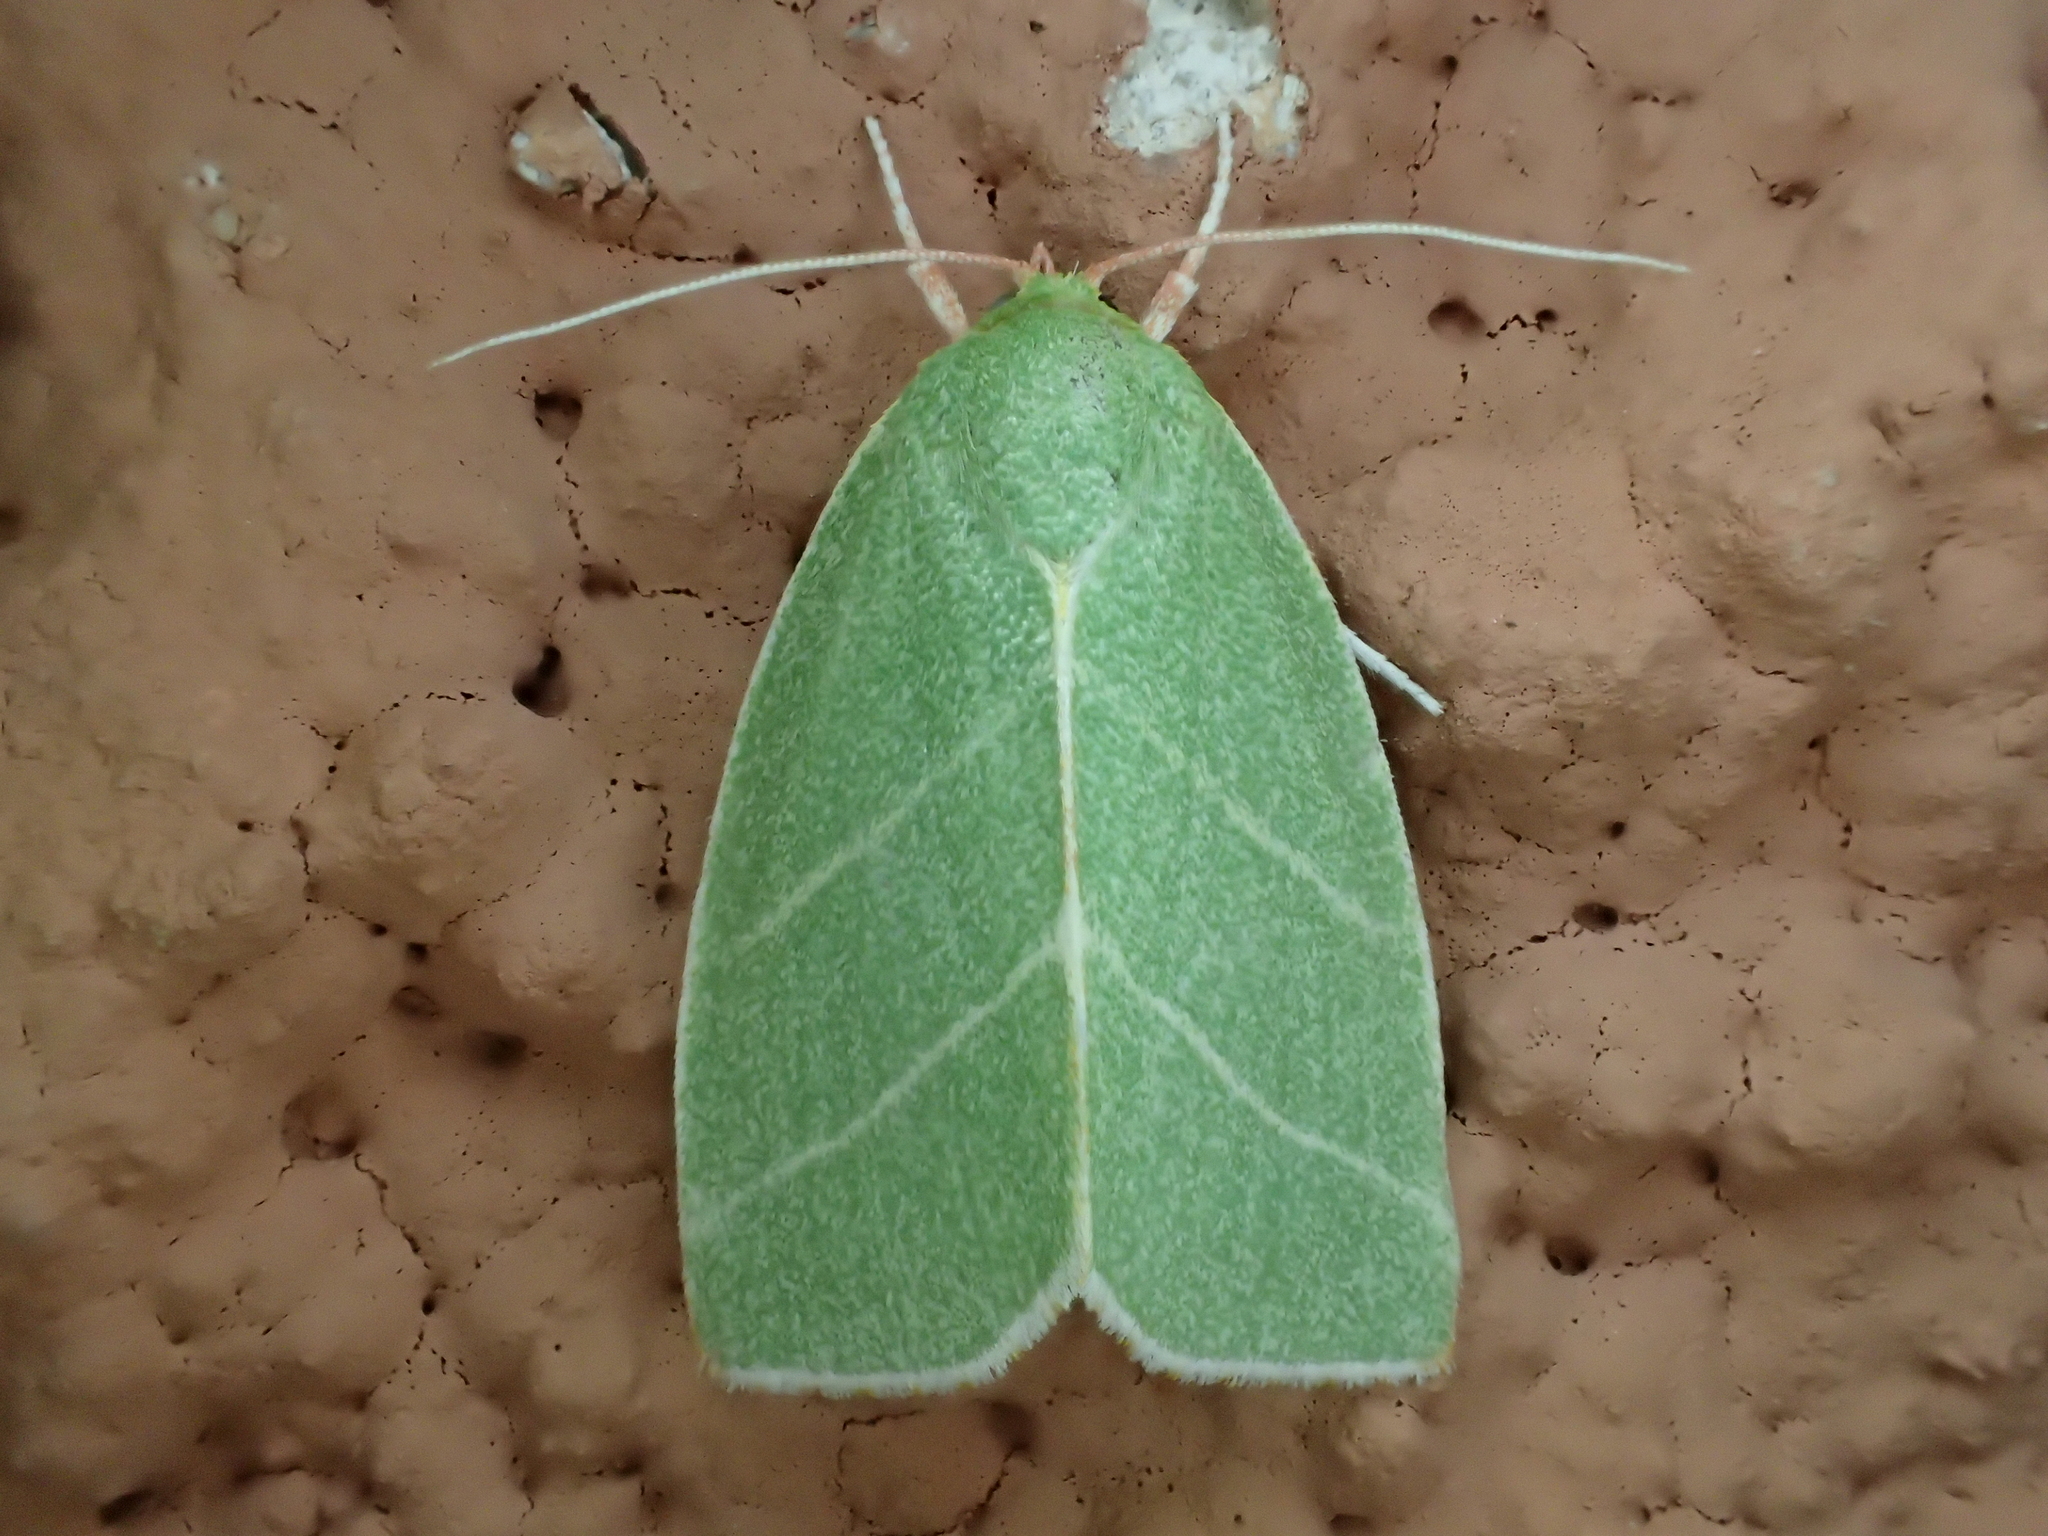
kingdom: Animalia
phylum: Arthropoda
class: Insecta
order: Lepidoptera
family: Nolidae
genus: Bena
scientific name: Bena bicolorana
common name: Scarce silver-lines
